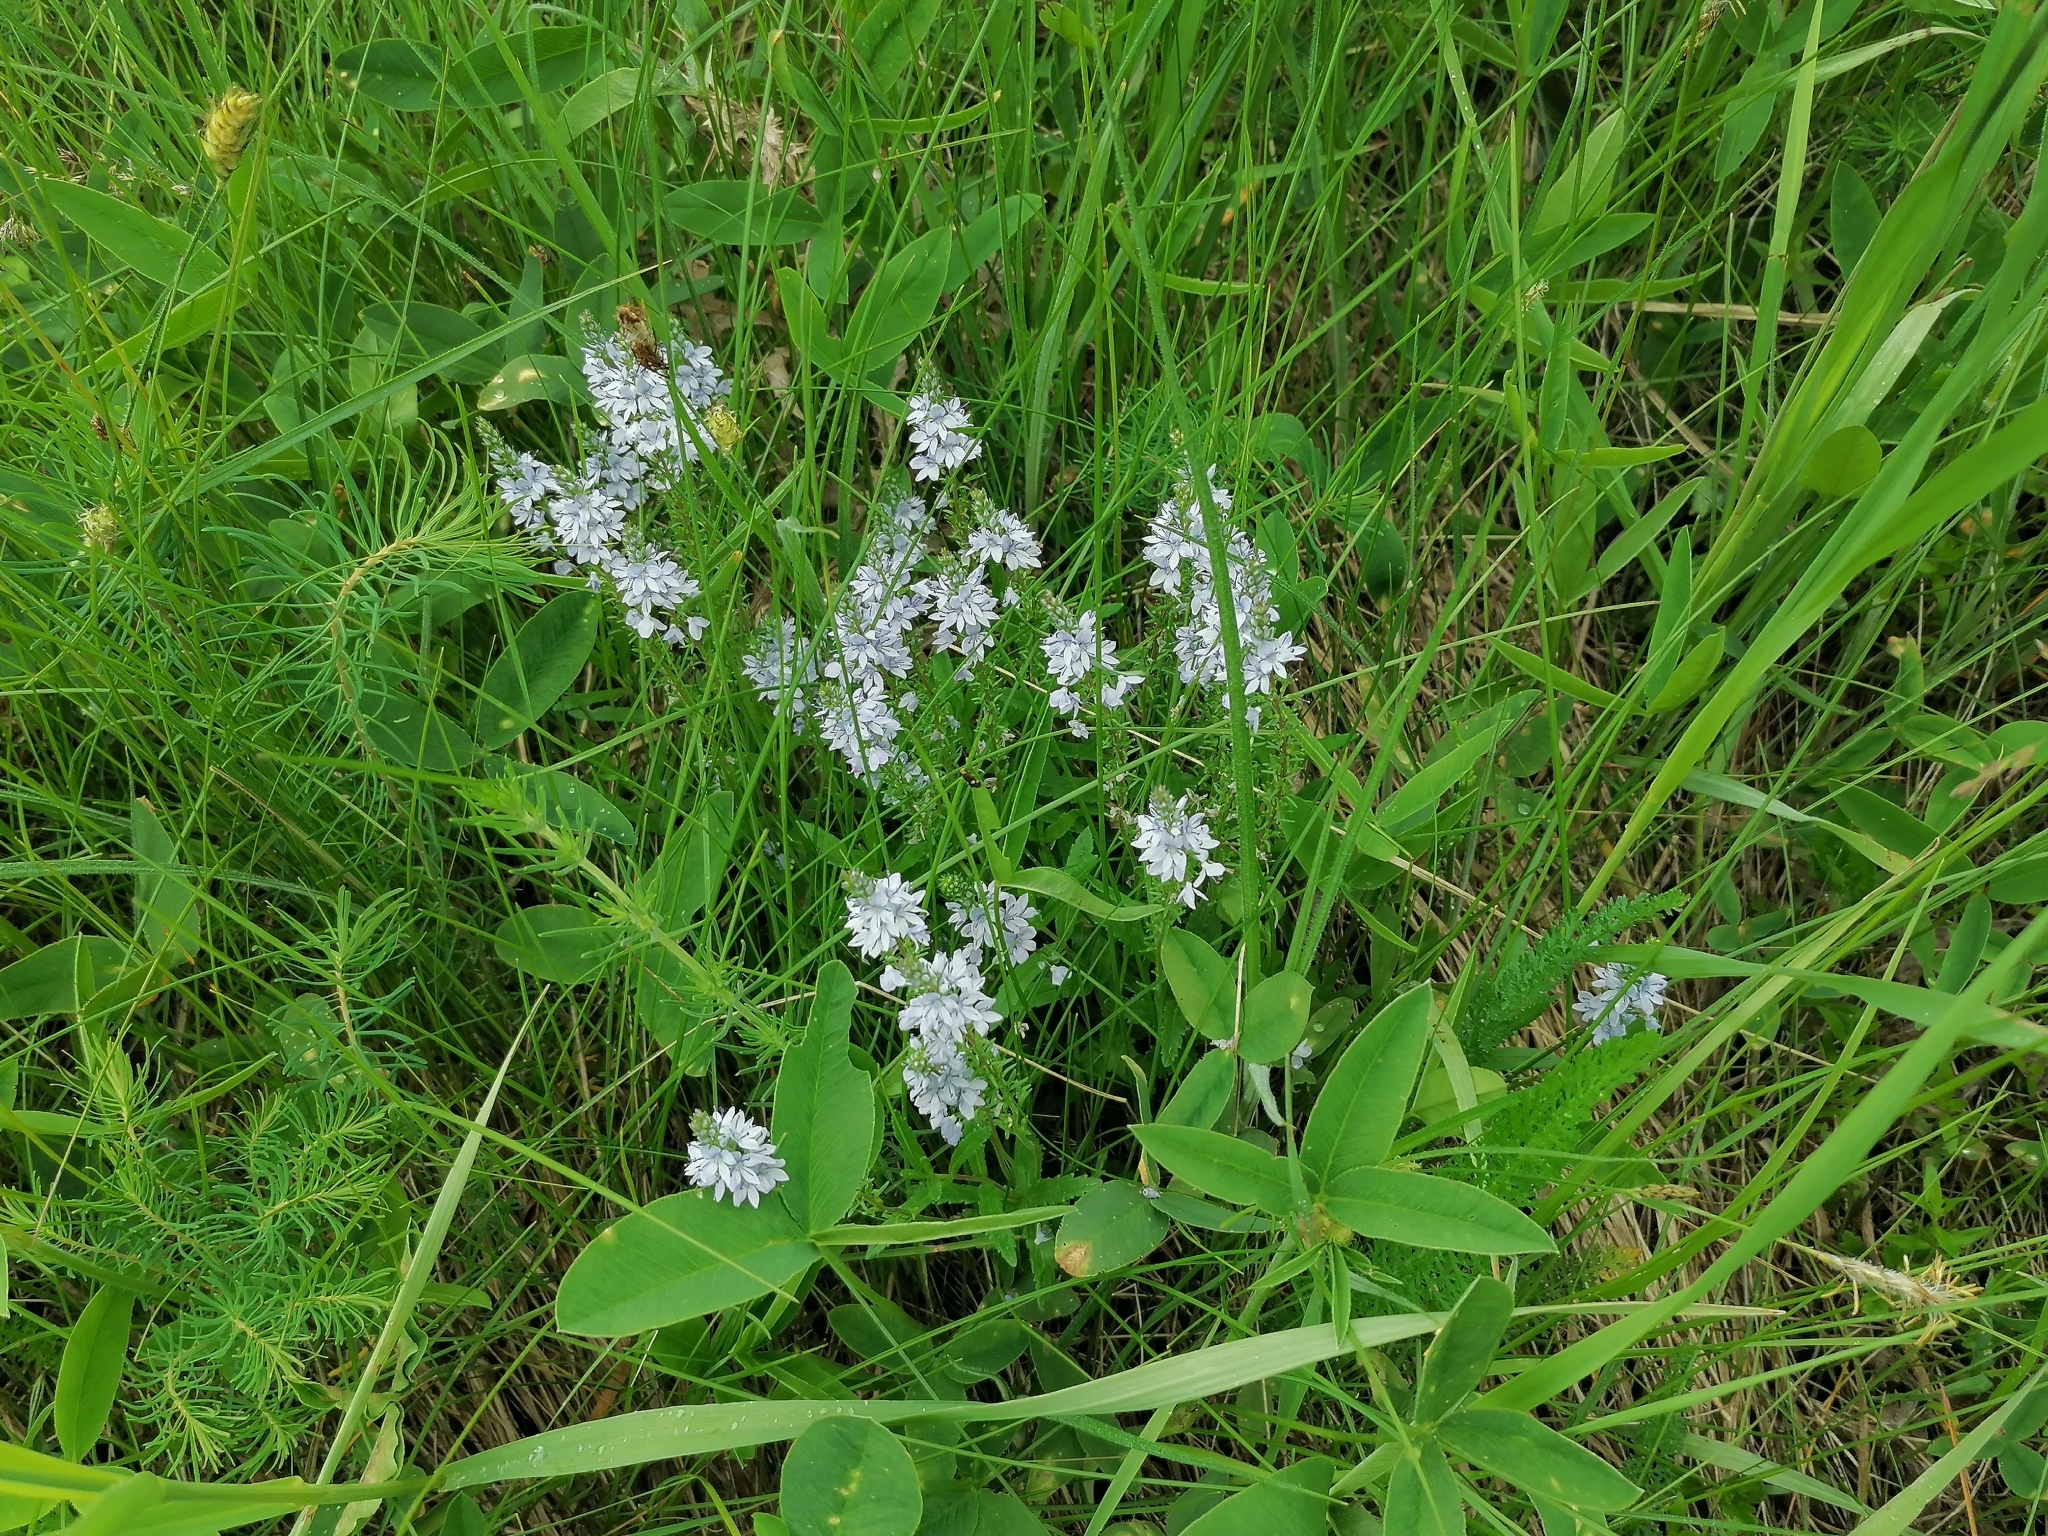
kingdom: Plantae
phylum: Tracheophyta
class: Magnoliopsida
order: Lamiales
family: Plantaginaceae
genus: Veronica
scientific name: Veronica austriaca
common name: Large speedwell
